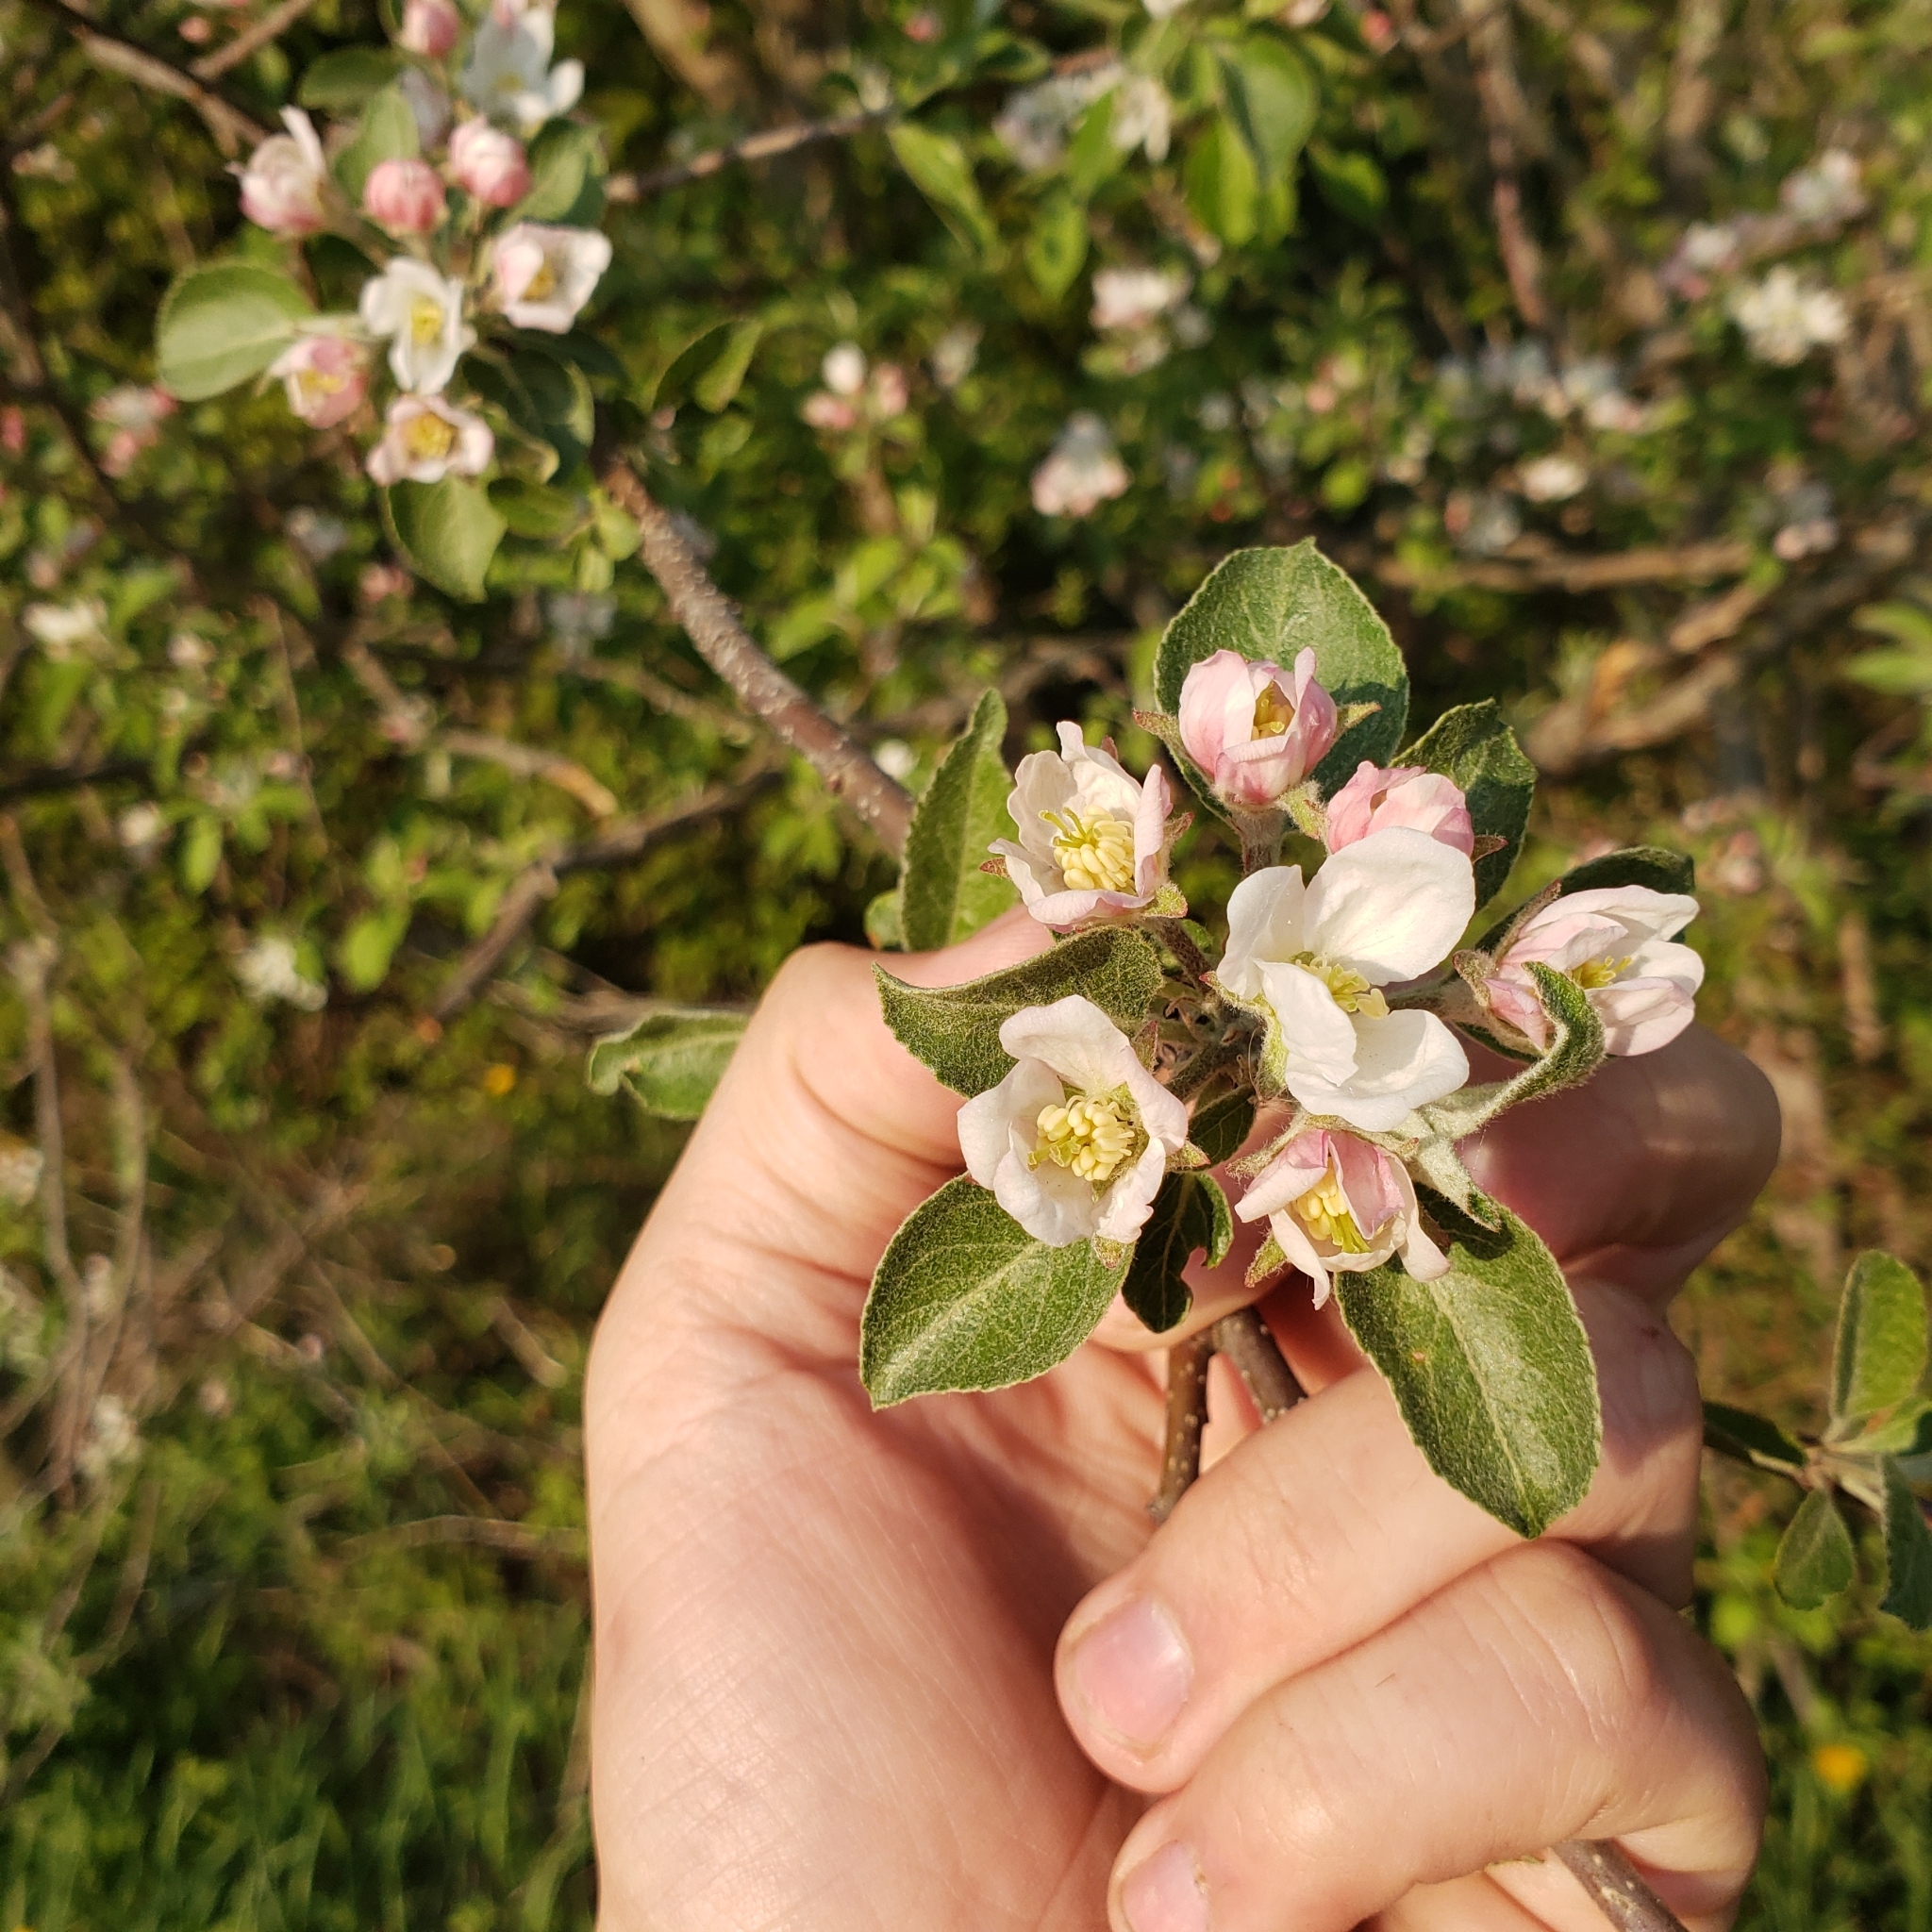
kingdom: Plantae
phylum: Tracheophyta
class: Magnoliopsida
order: Rosales
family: Rosaceae
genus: Malus
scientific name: Malus domestica
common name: Apple
